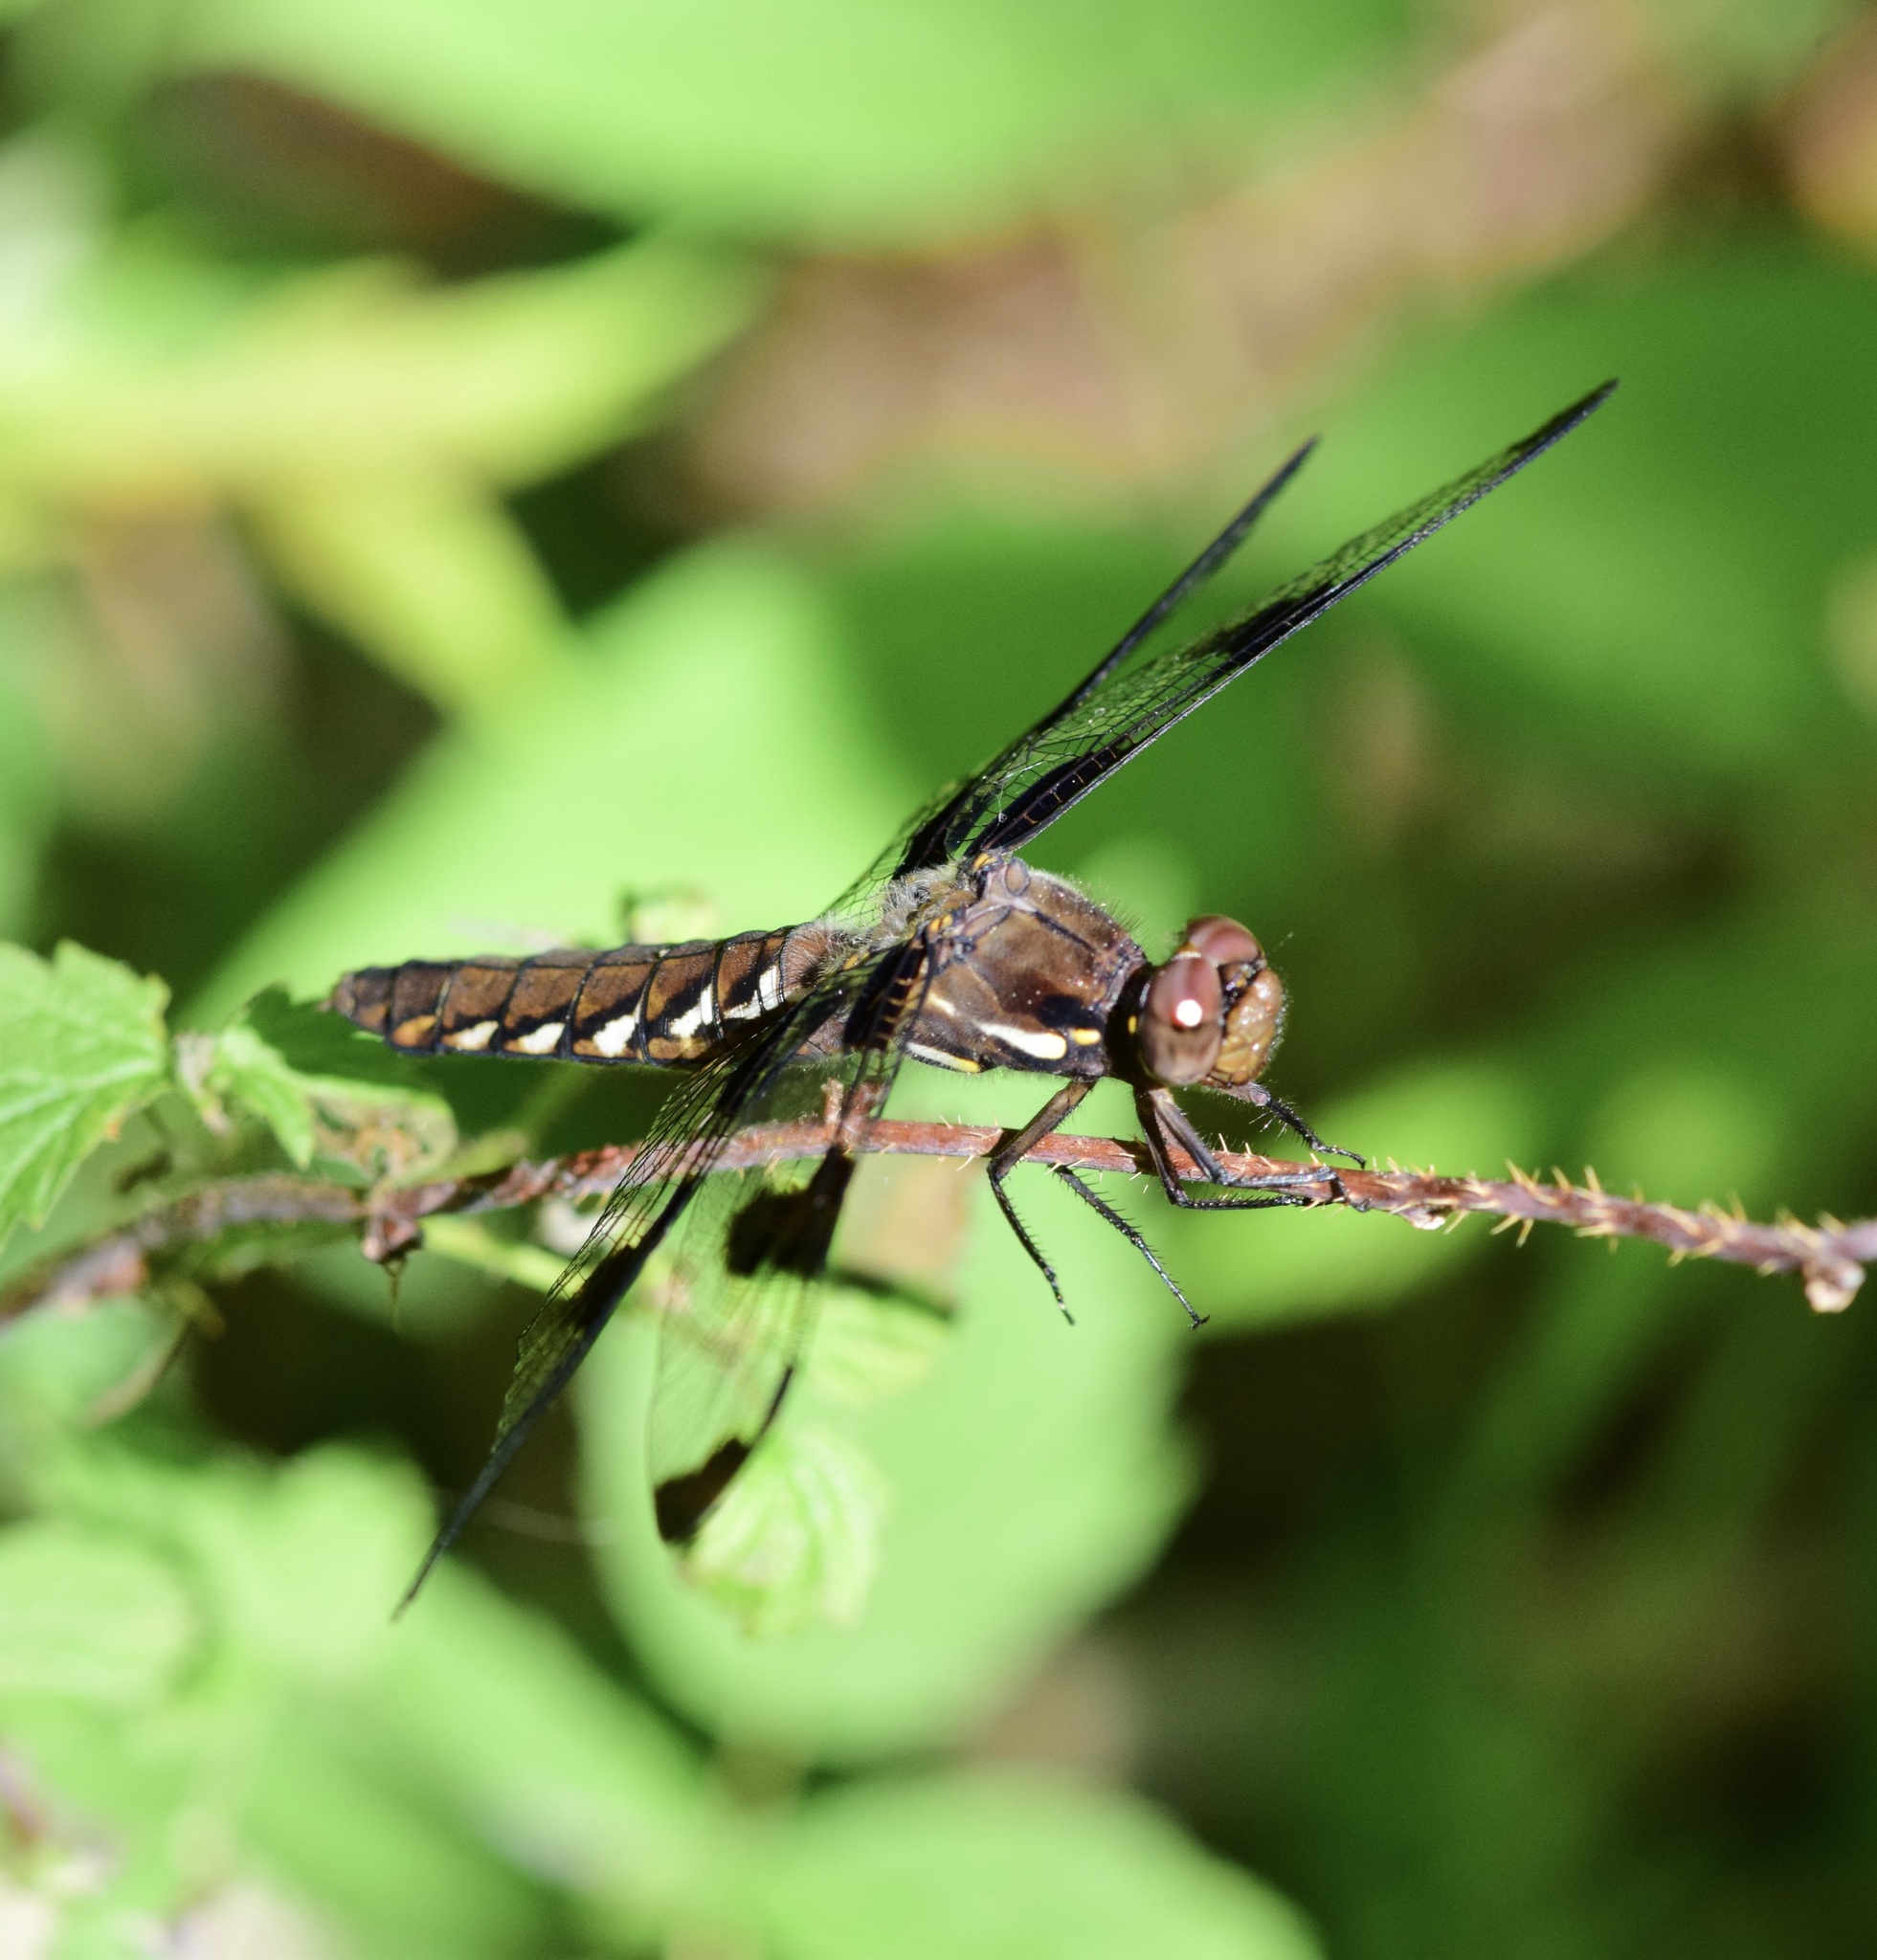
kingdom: Animalia
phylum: Arthropoda
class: Insecta
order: Odonata
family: Libellulidae
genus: Plathemis
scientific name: Plathemis lydia
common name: Common whitetail
